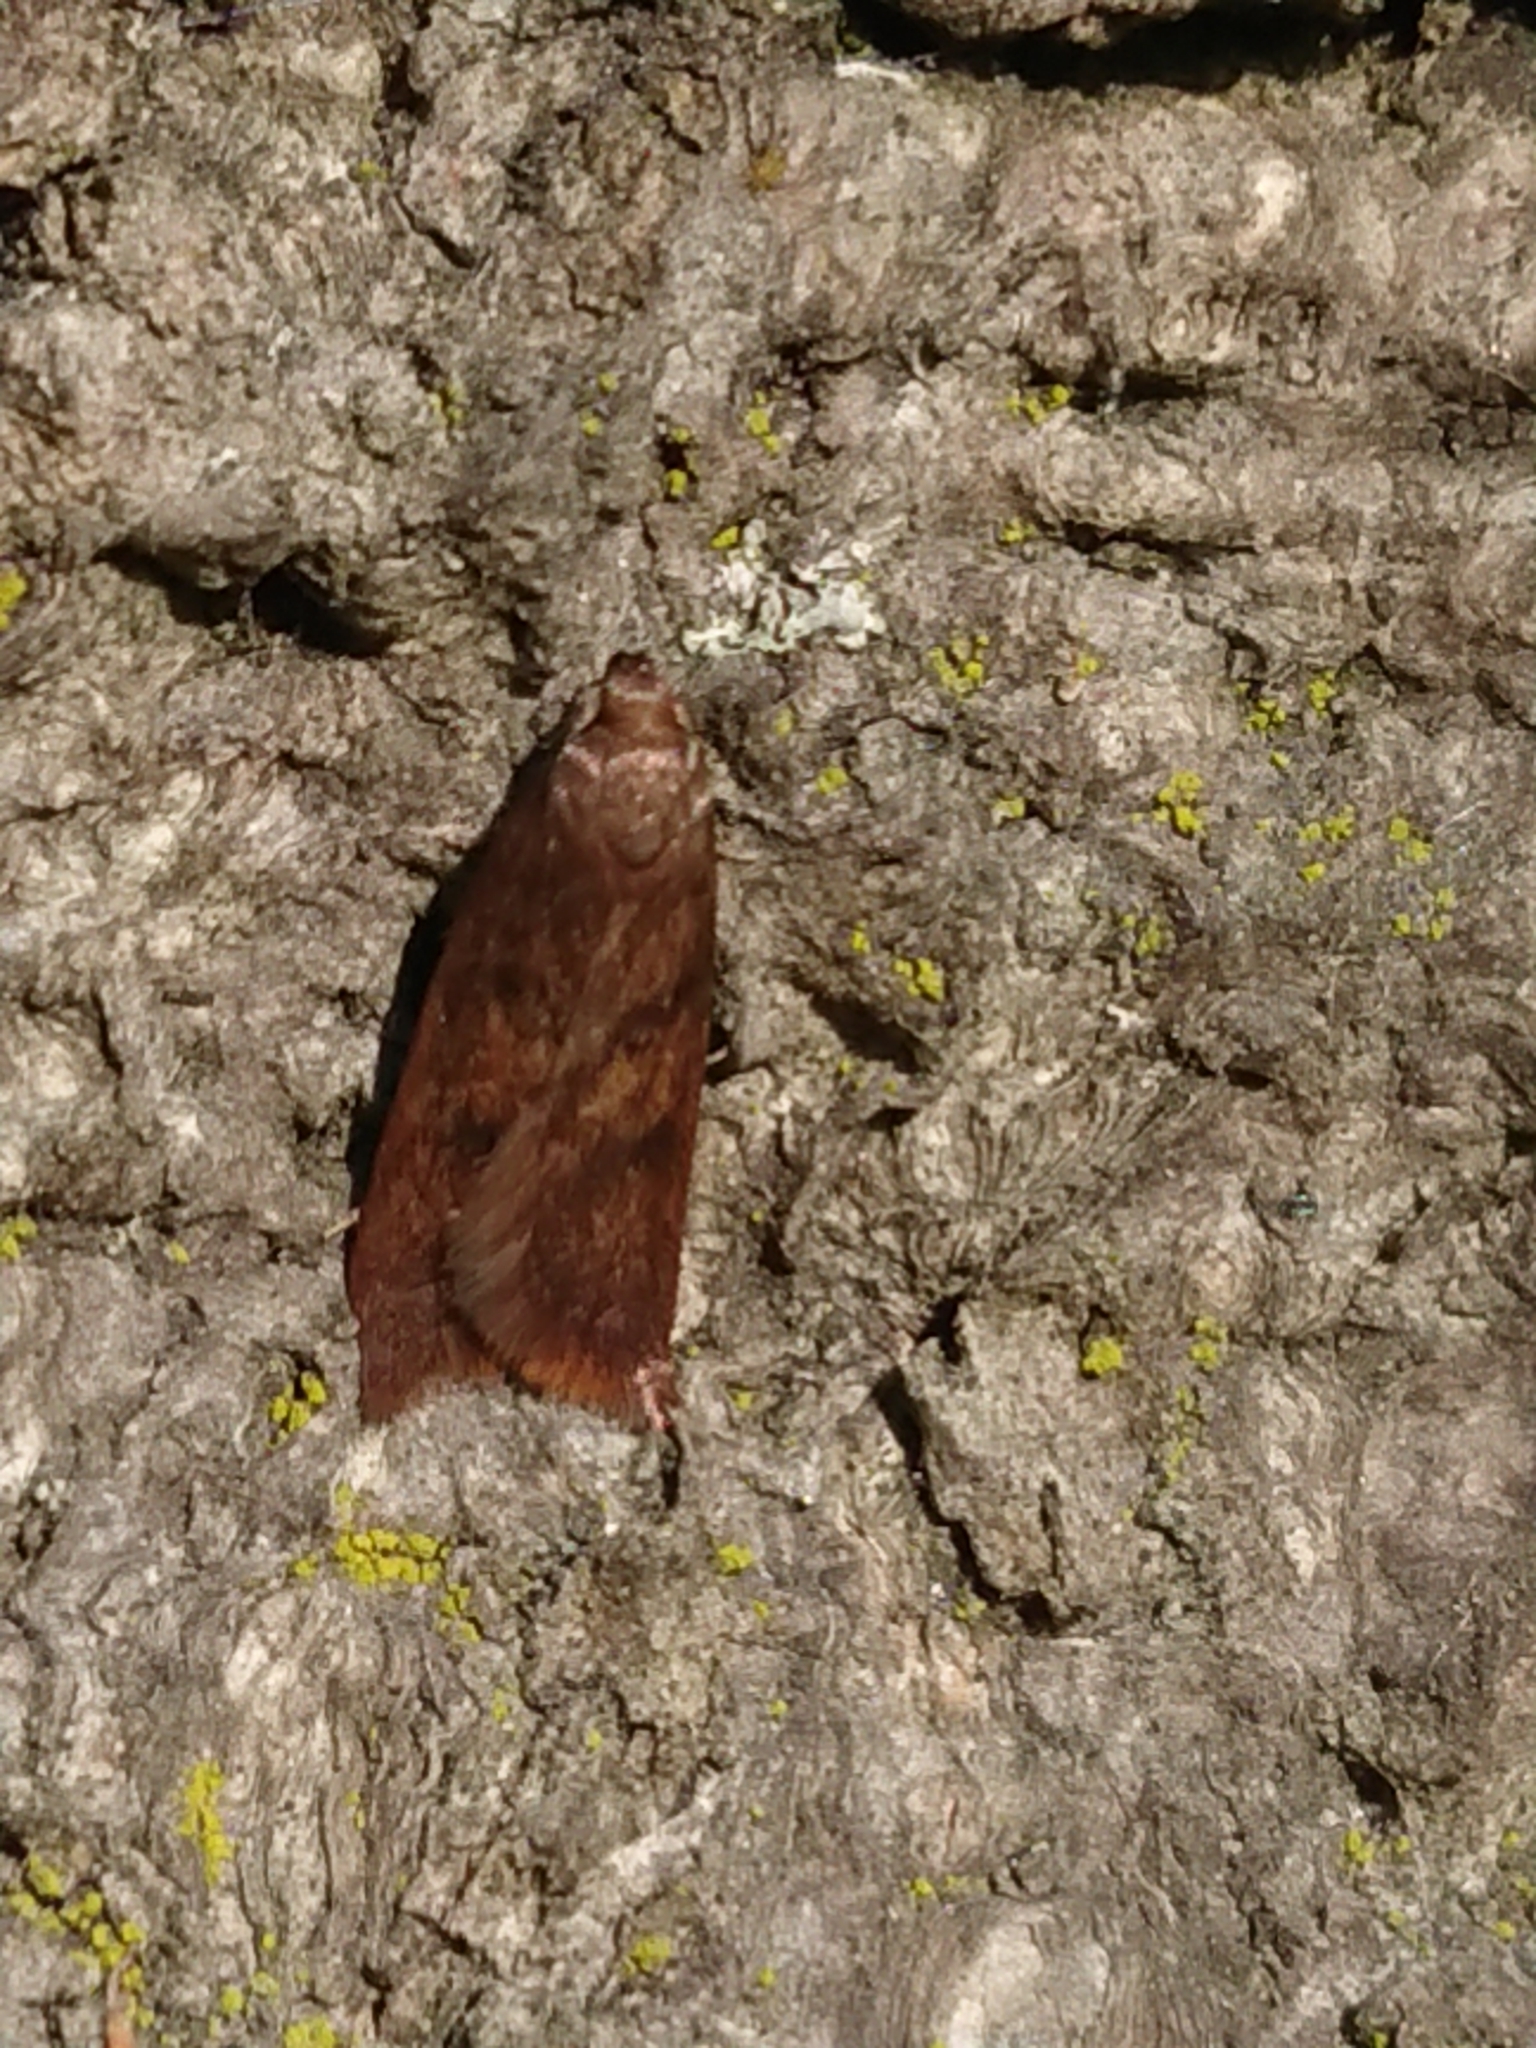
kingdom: Animalia
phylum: Arthropoda
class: Insecta
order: Lepidoptera
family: Oecophoridae
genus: Tachystola
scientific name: Tachystola acroxantha
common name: Ruddy streak
